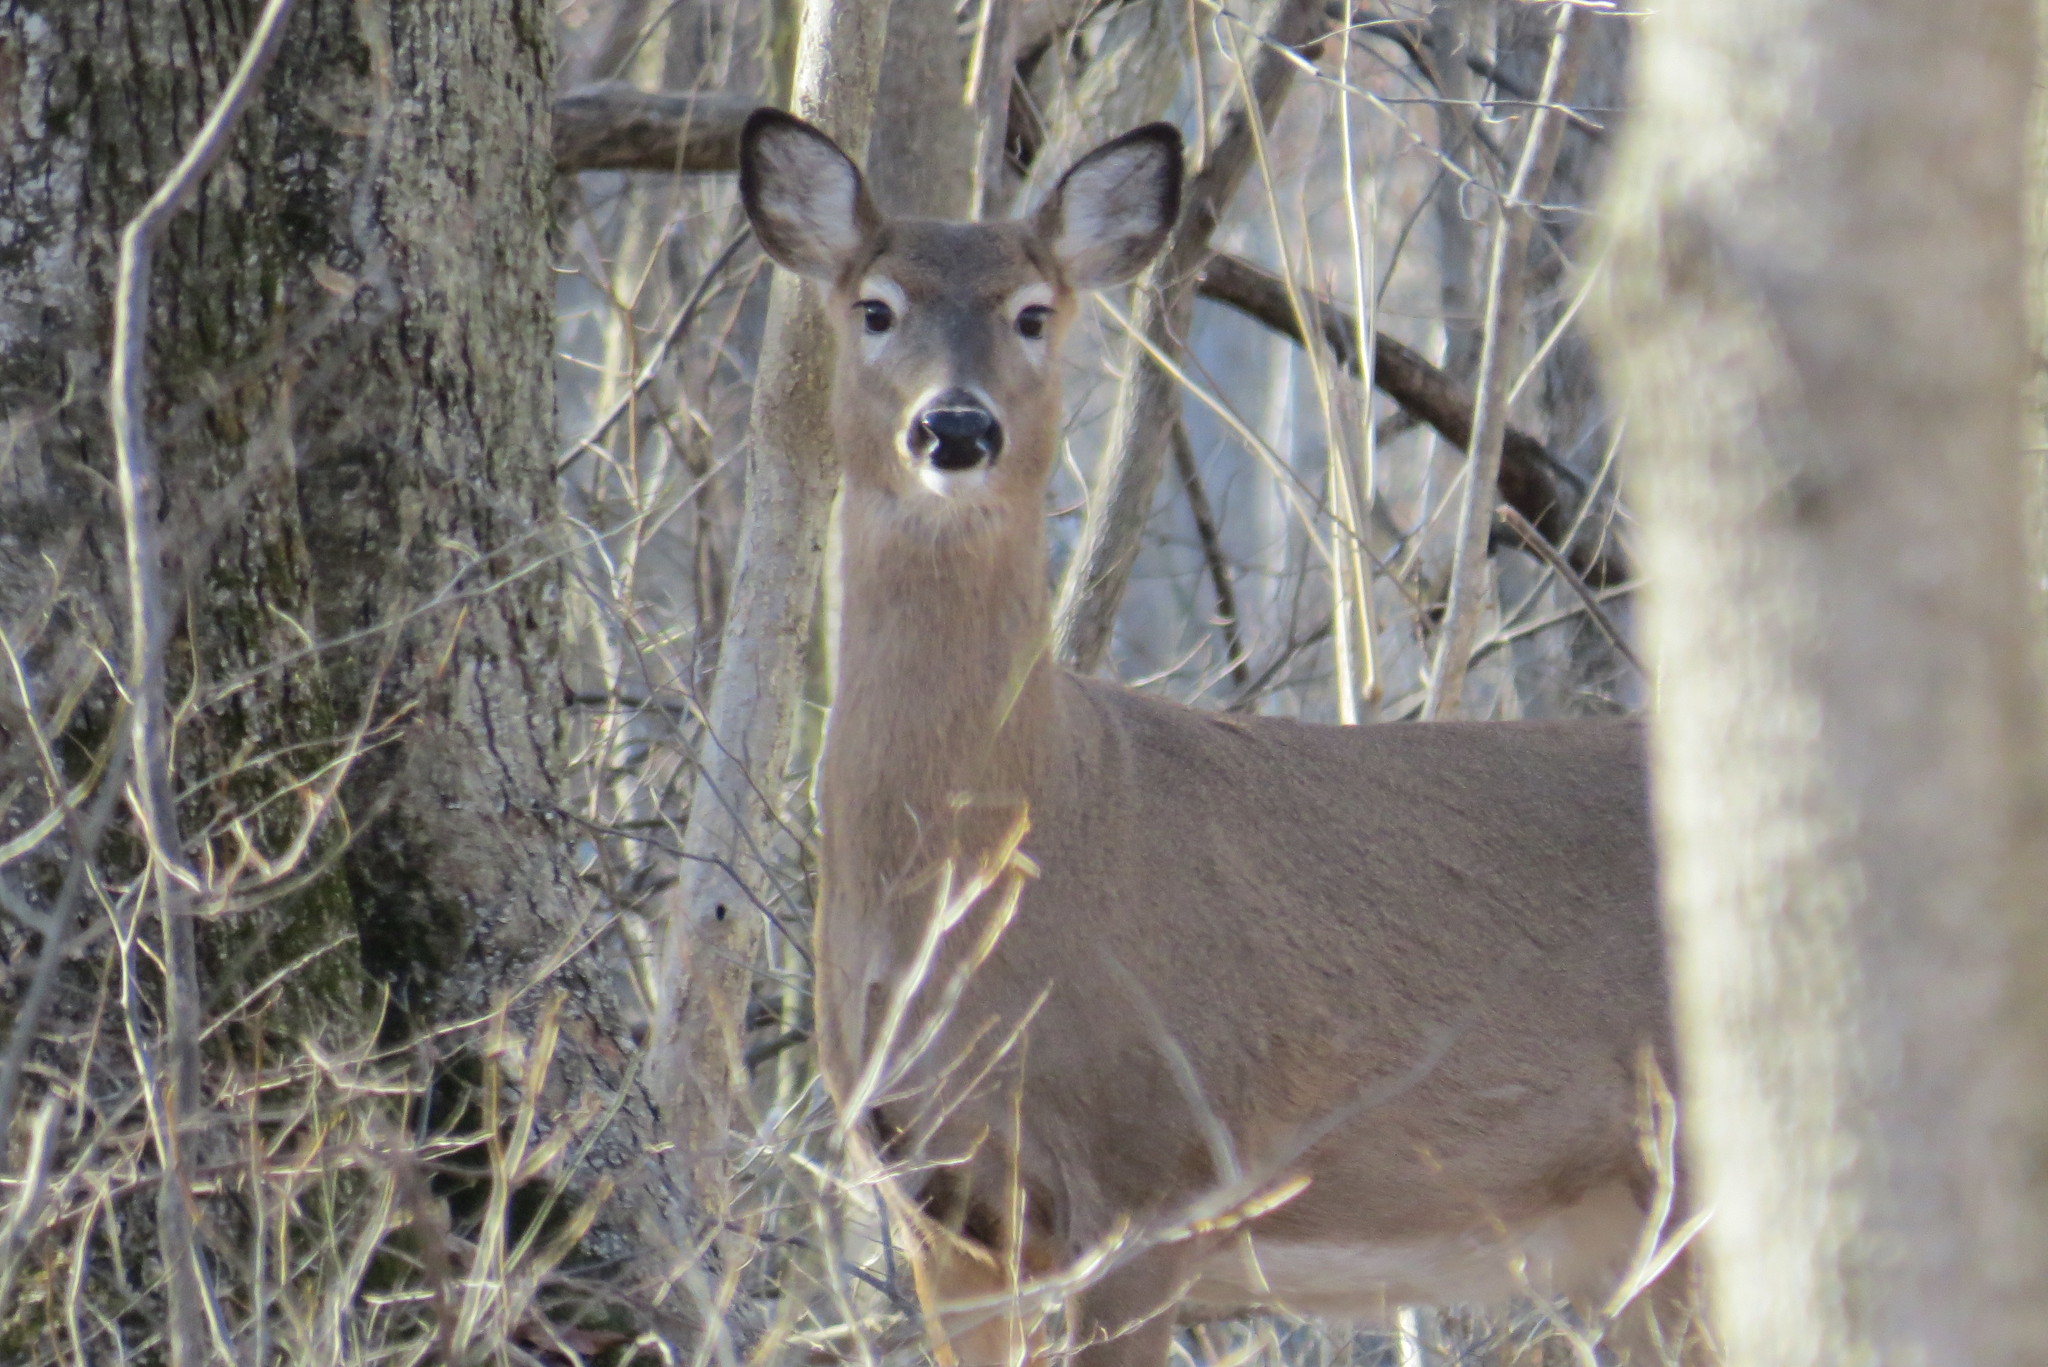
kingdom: Animalia
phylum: Chordata
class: Mammalia
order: Artiodactyla
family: Cervidae
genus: Odocoileus
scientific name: Odocoileus virginianus
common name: White-tailed deer
